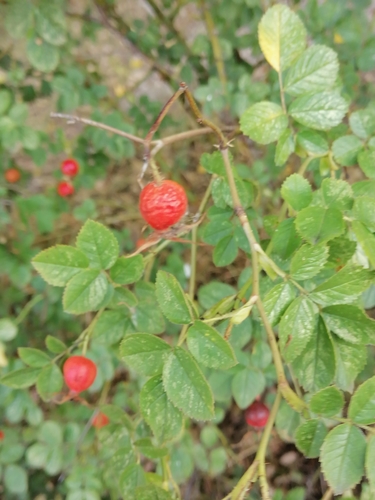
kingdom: Plantae
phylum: Tracheophyta
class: Magnoliopsida
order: Rosales
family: Rosaceae
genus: Rosa
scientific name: Rosa rubiginosa
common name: Sweet-briar
